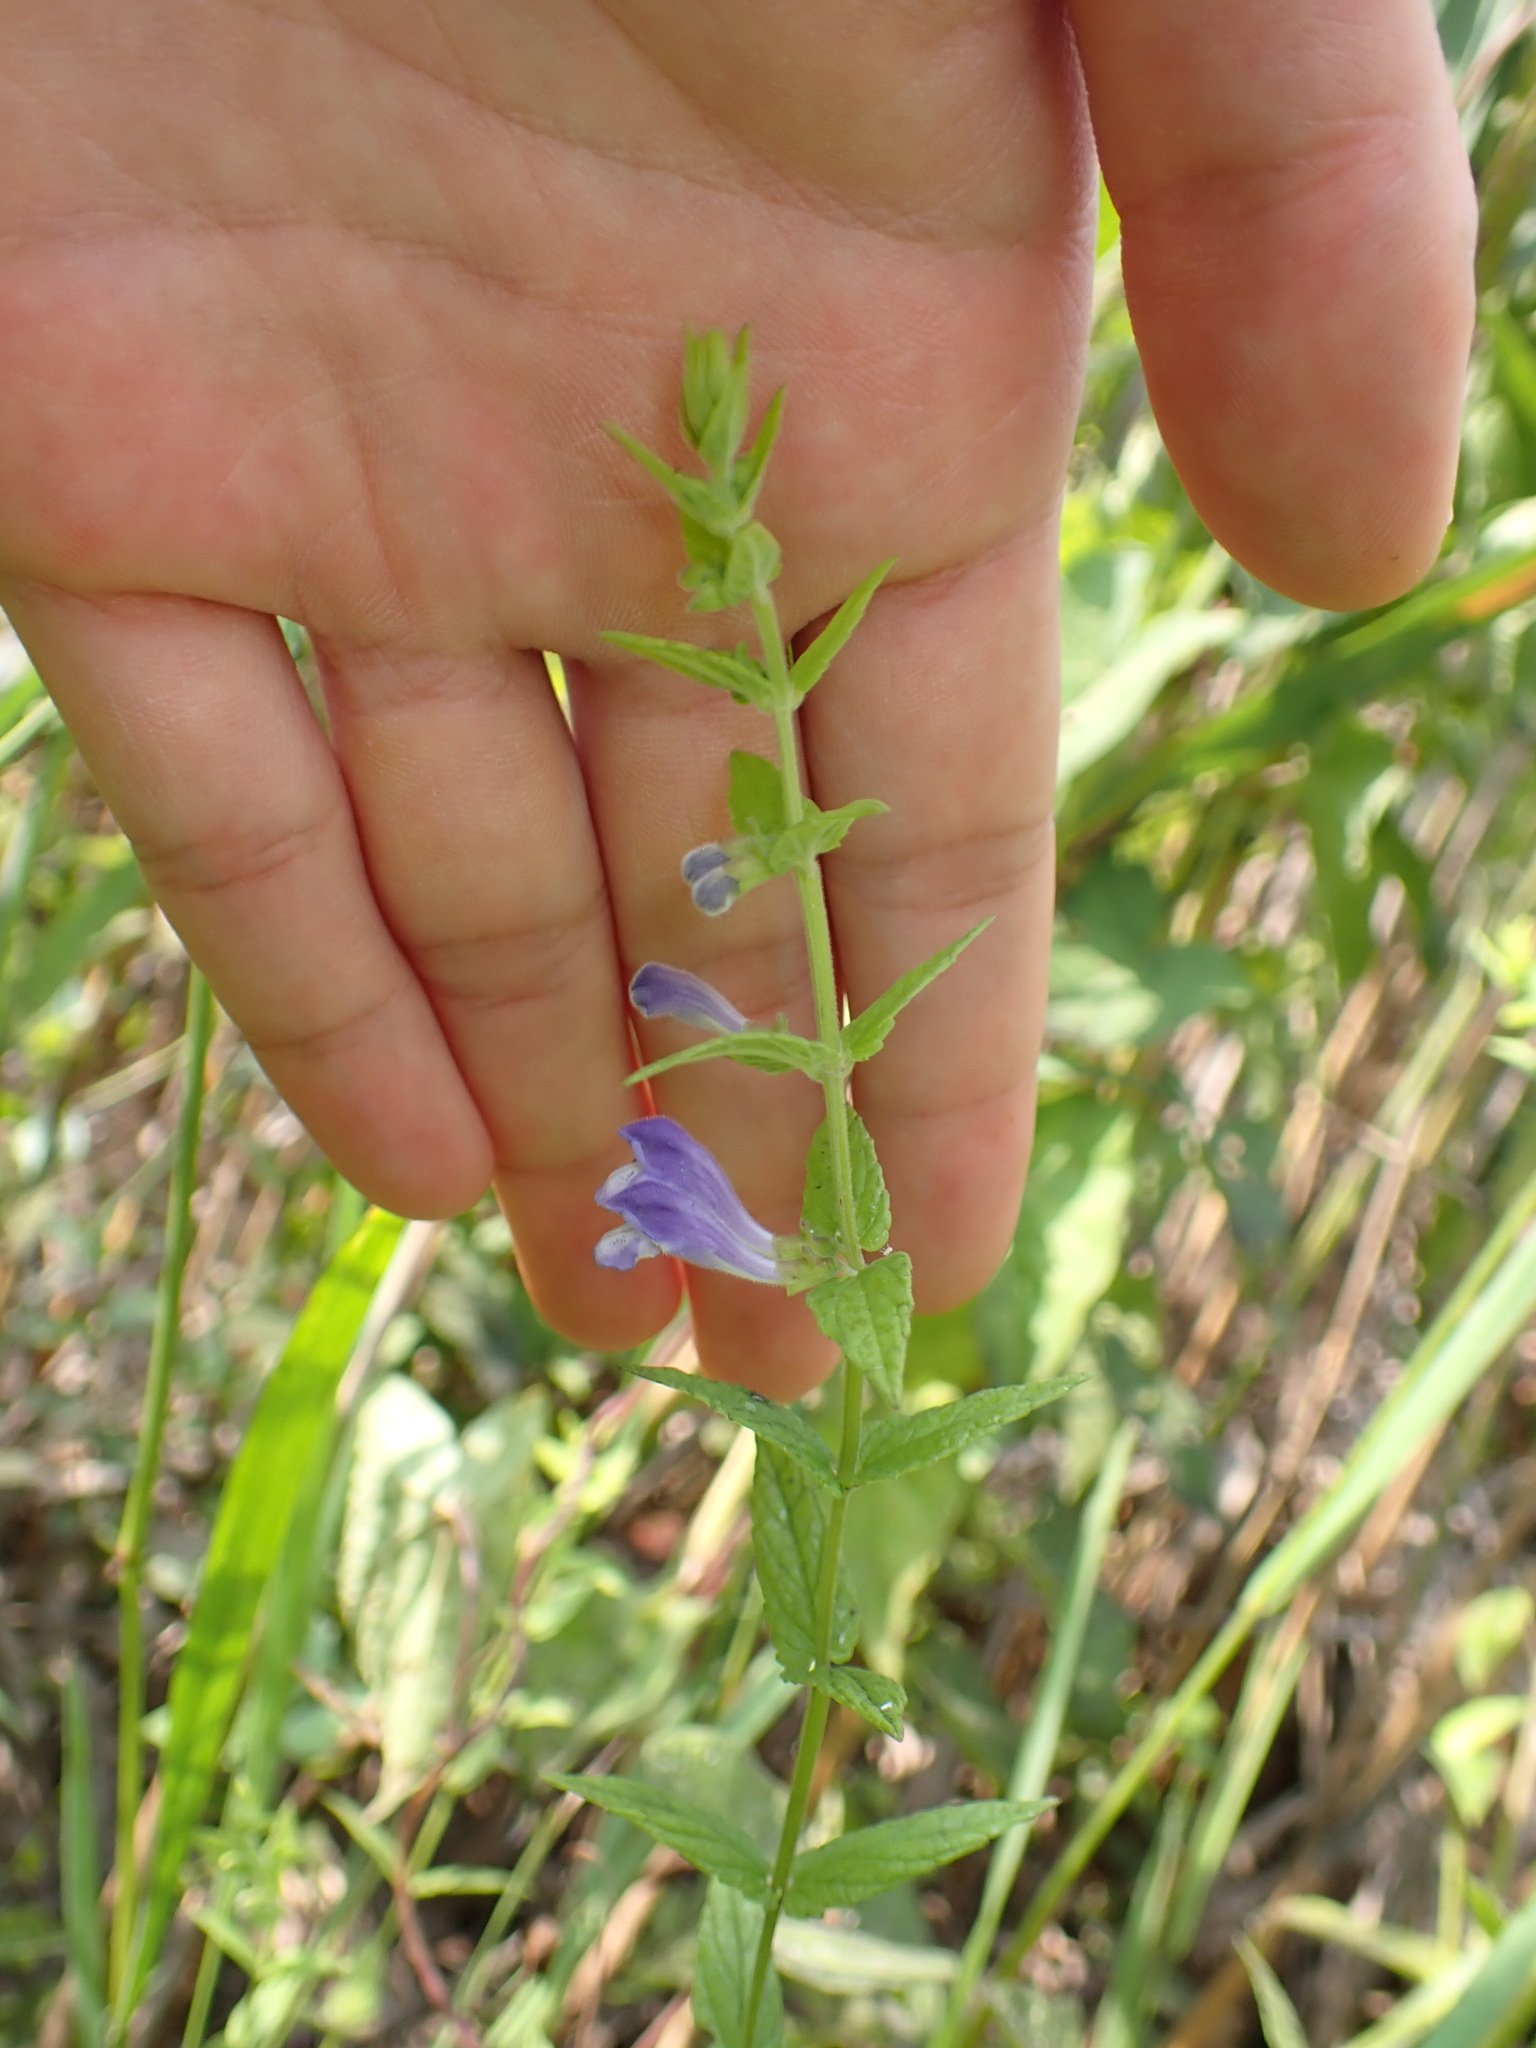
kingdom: Plantae
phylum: Tracheophyta
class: Magnoliopsida
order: Lamiales
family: Lamiaceae
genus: Scutellaria
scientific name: Scutellaria galericulata
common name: Skullcap
